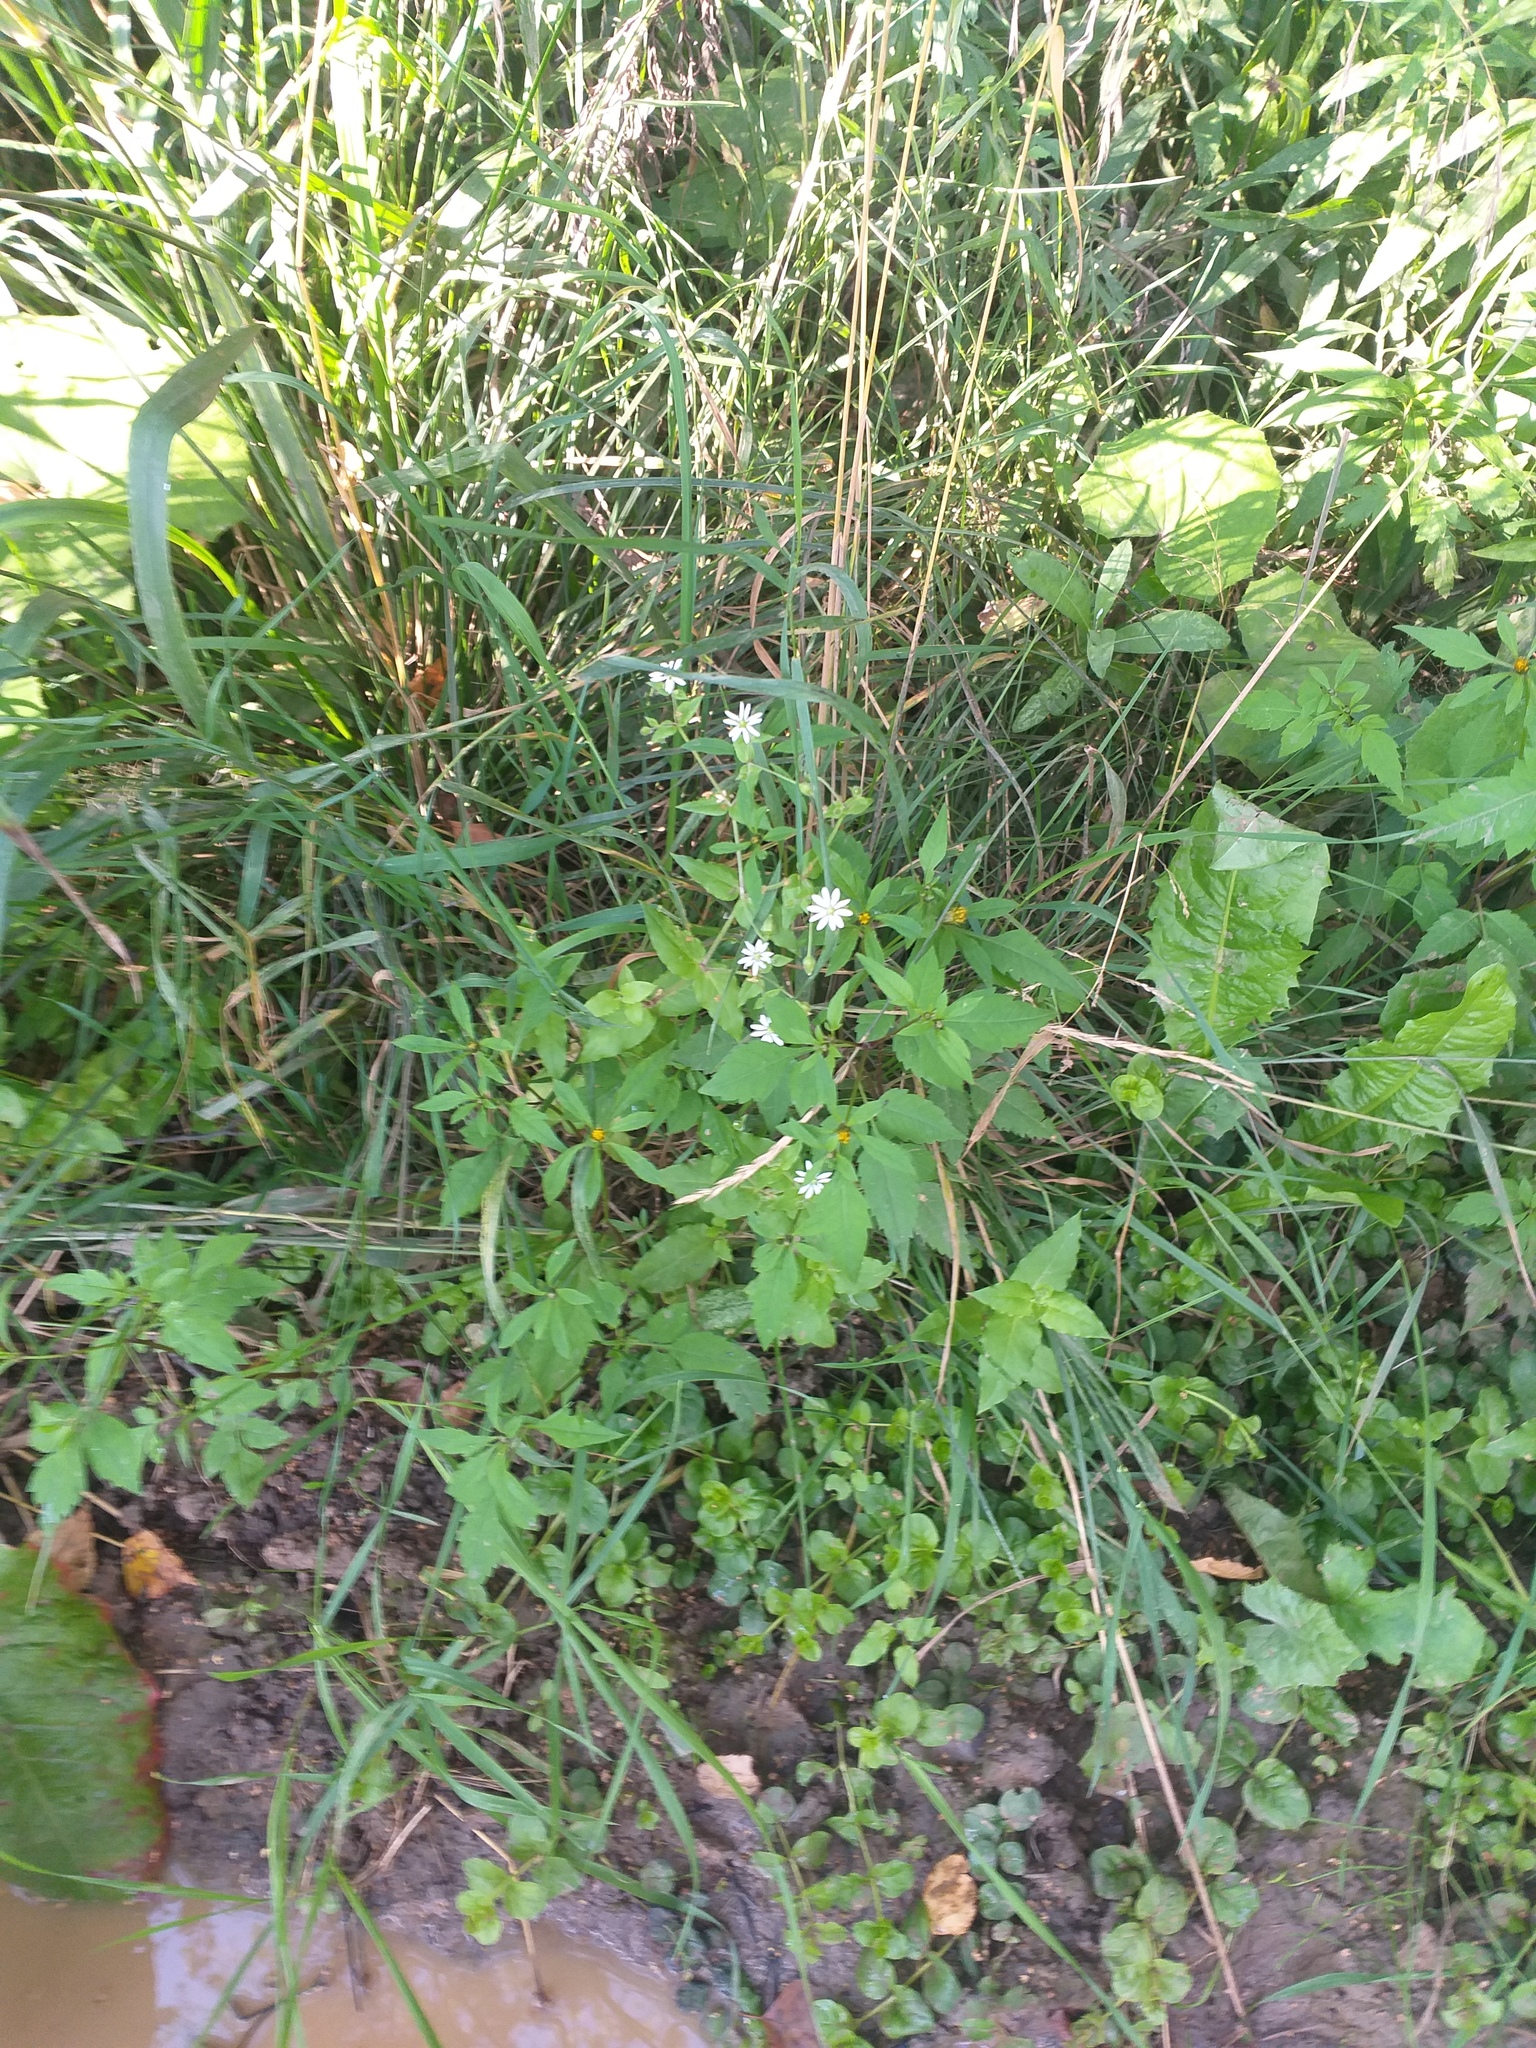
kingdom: Plantae
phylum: Tracheophyta
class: Magnoliopsida
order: Caryophyllales
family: Caryophyllaceae
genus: Stellaria
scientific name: Stellaria aquatica
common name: Water chickweed
